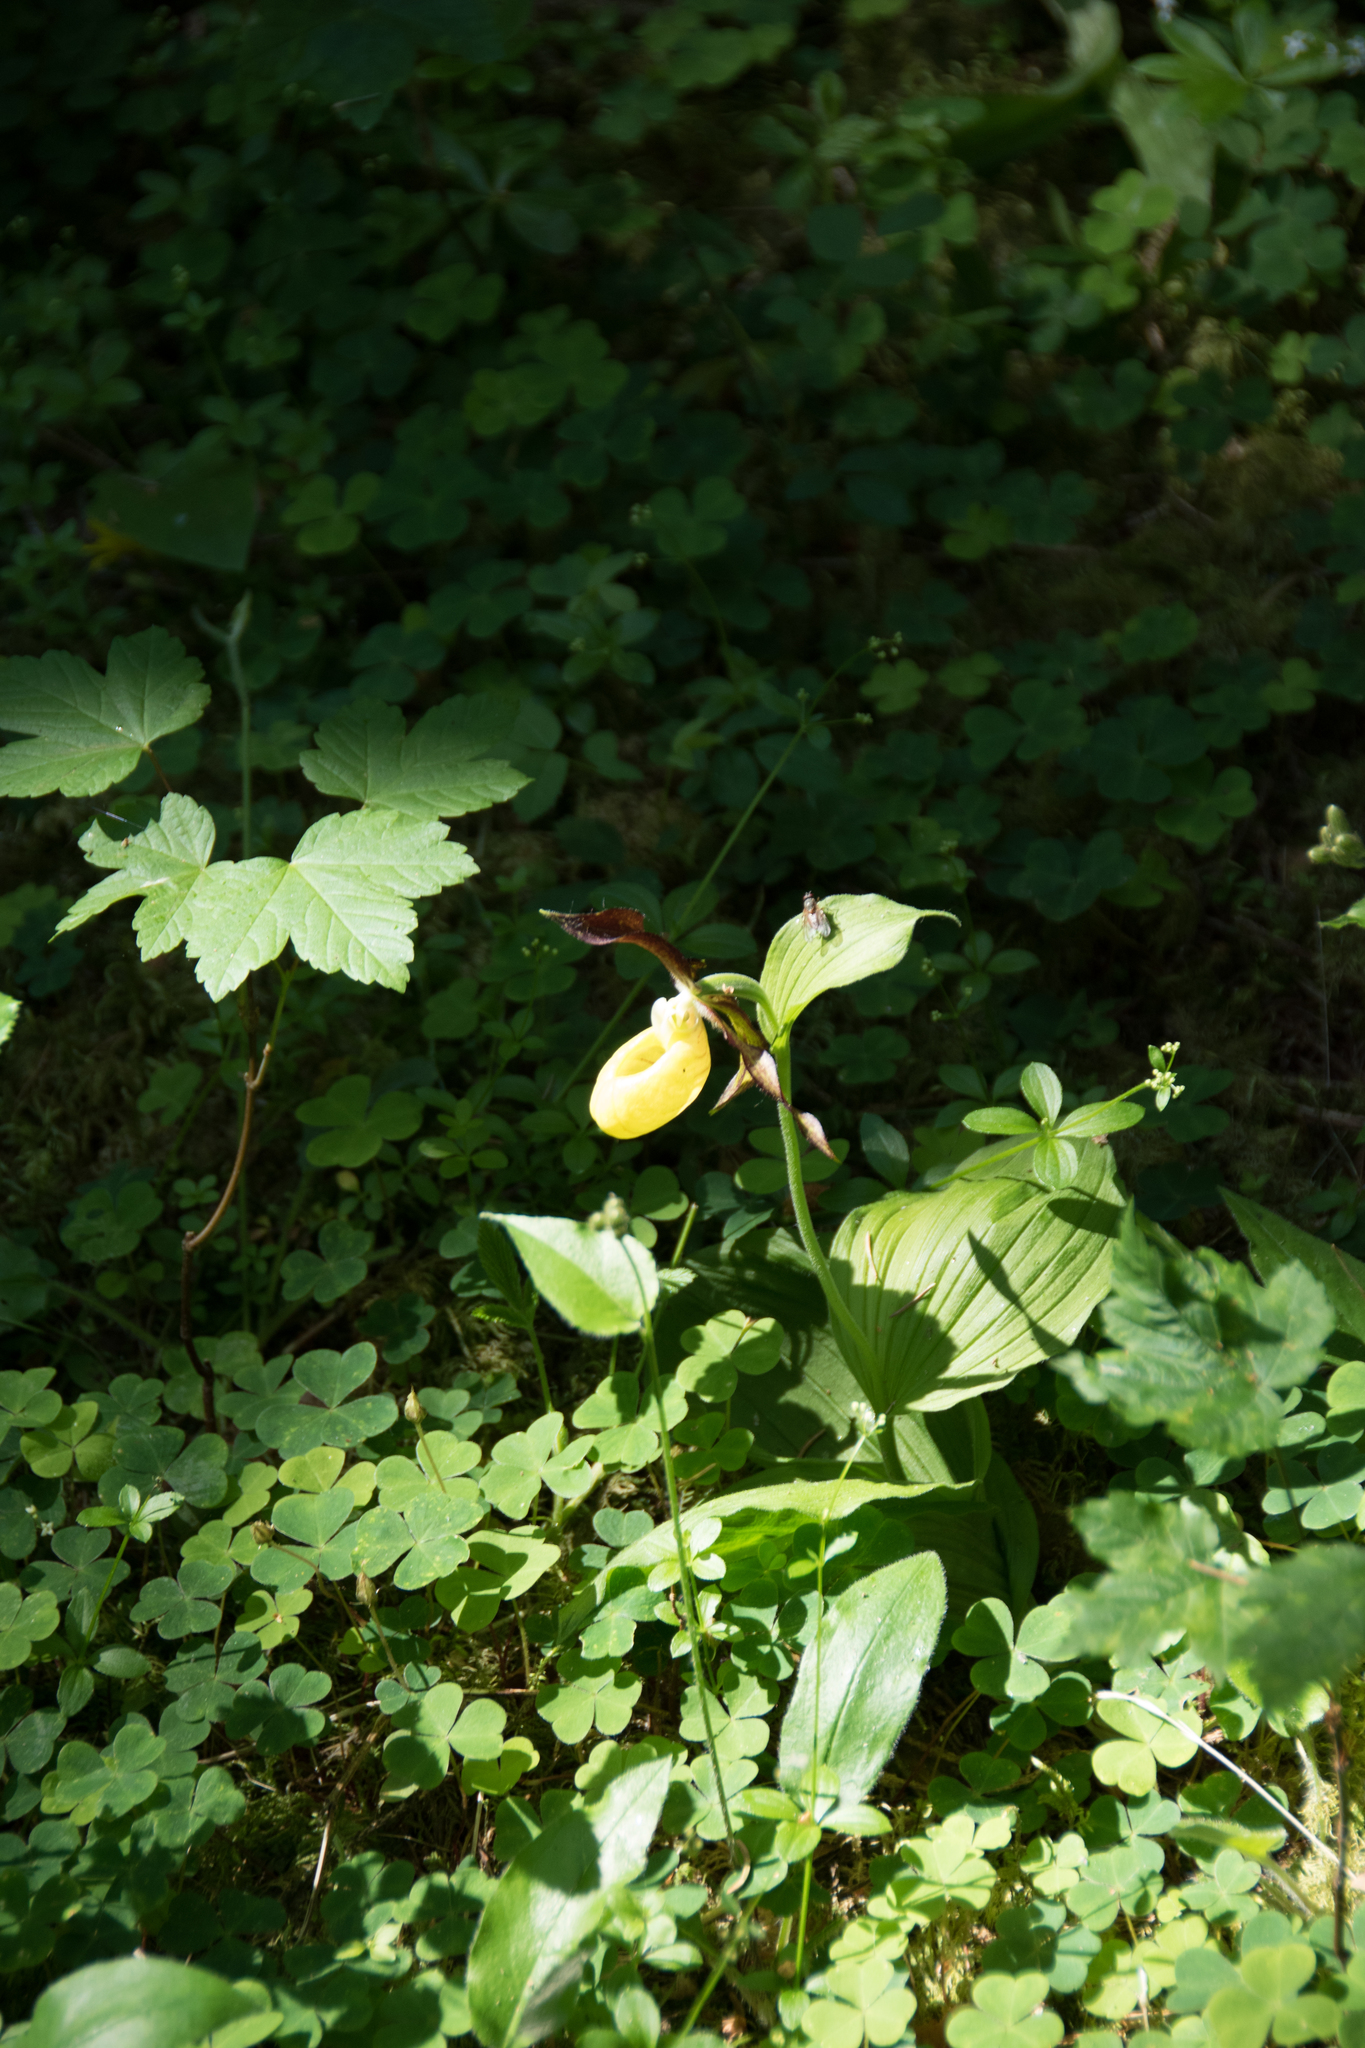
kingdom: Plantae
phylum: Tracheophyta
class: Liliopsida
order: Asparagales
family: Orchidaceae
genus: Cypripedium
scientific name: Cypripedium calceolus
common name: Lady's-slipper
